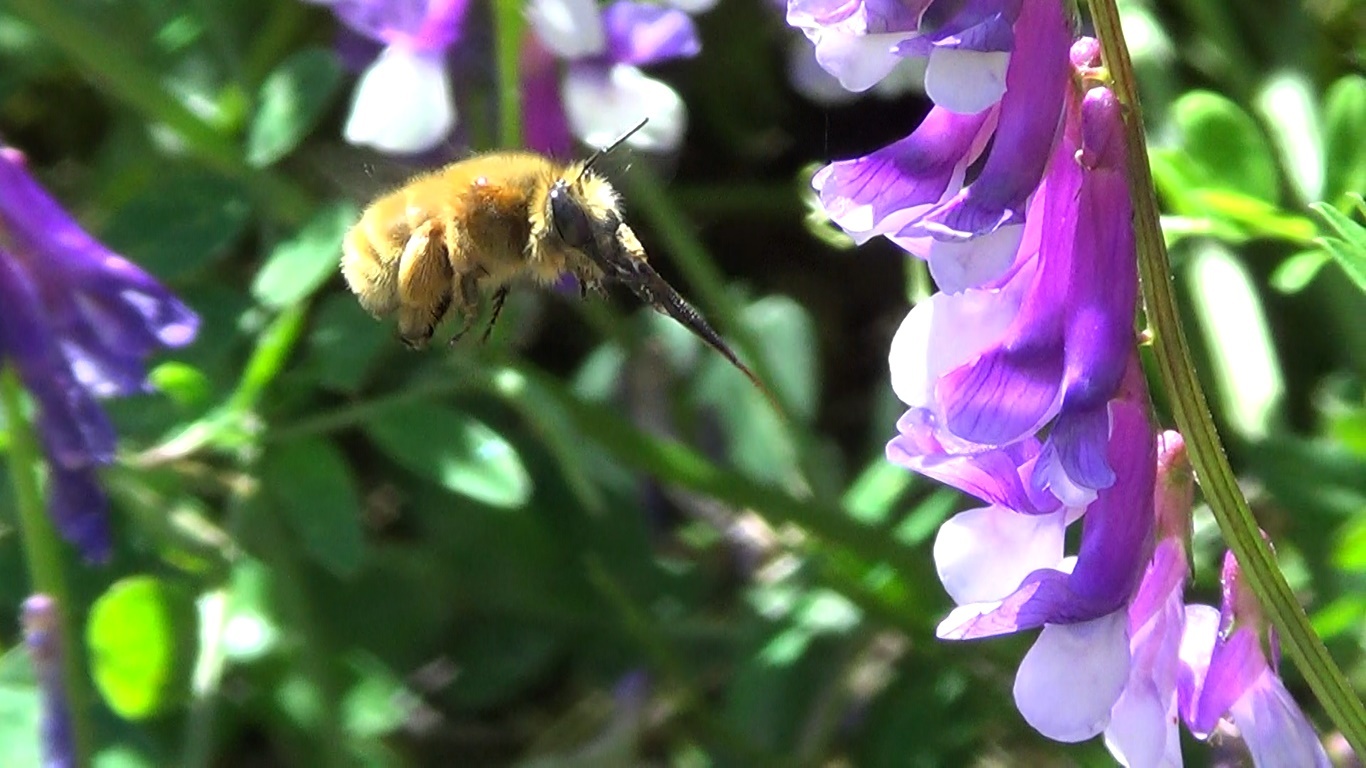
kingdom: Animalia
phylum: Arthropoda
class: Insecta
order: Hymenoptera
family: Apidae
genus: Anthophora
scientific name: Anthophora plumipes
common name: Hairy-footed flower bee
